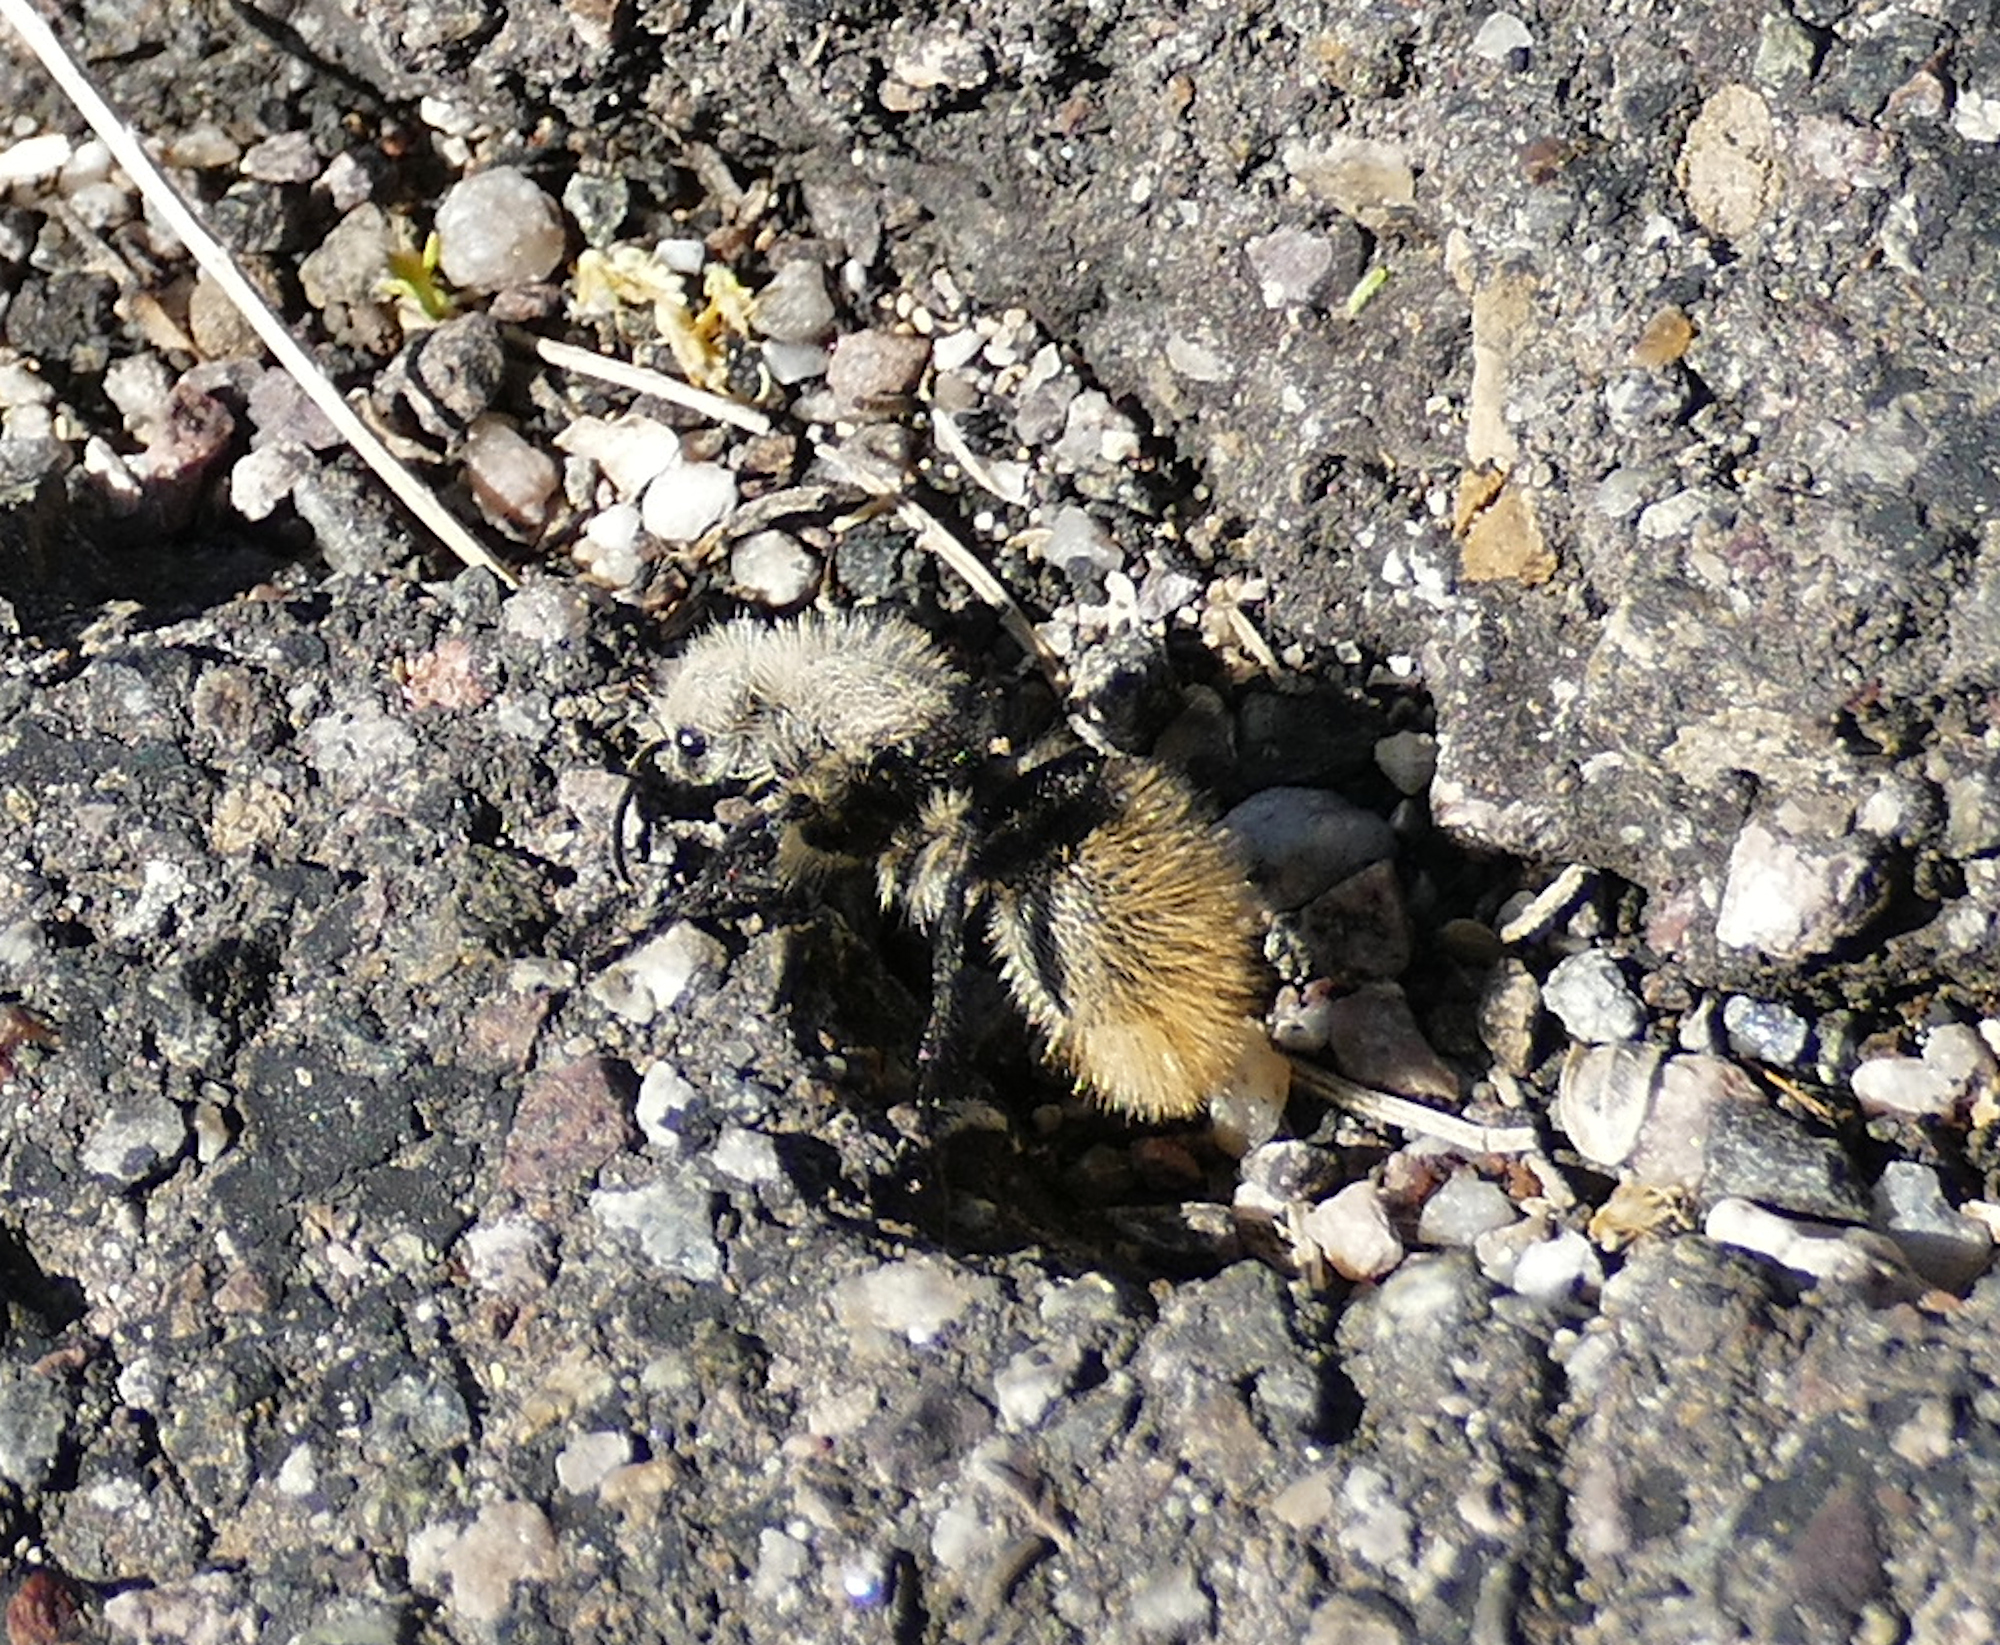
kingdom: Animalia
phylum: Arthropoda
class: Insecta
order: Hymenoptera
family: Mutillidae
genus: Dasymutilla
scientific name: Dasymutilla
